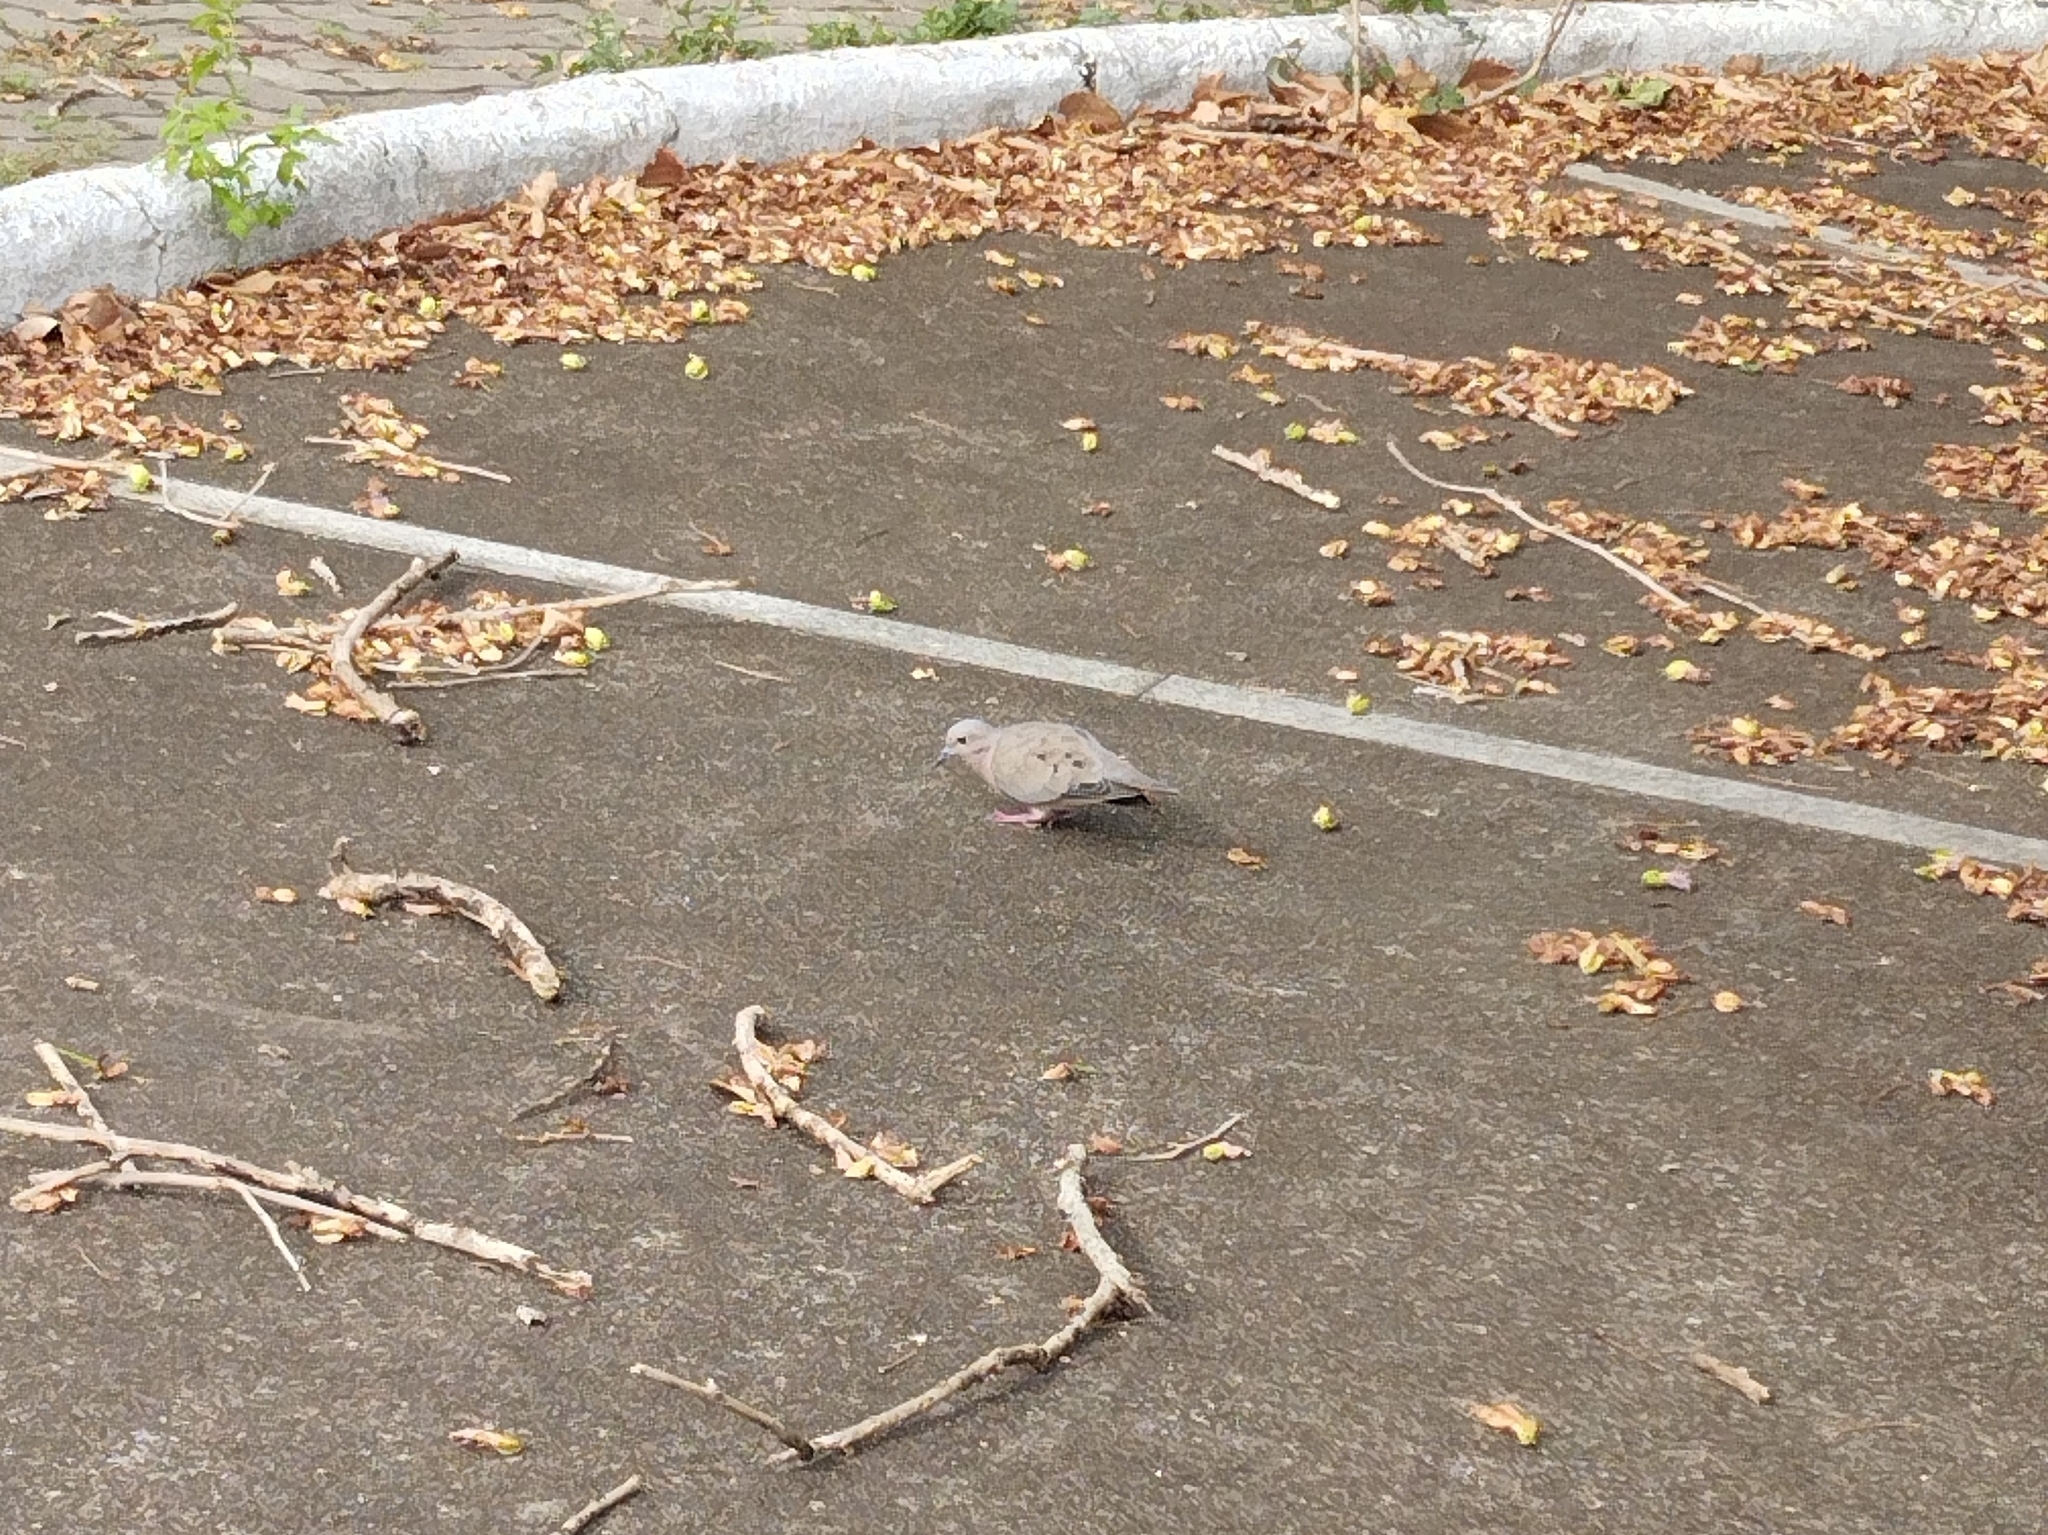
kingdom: Animalia
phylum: Chordata
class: Aves
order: Columbiformes
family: Columbidae
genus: Zenaida
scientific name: Zenaida auriculata
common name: Eared dove
